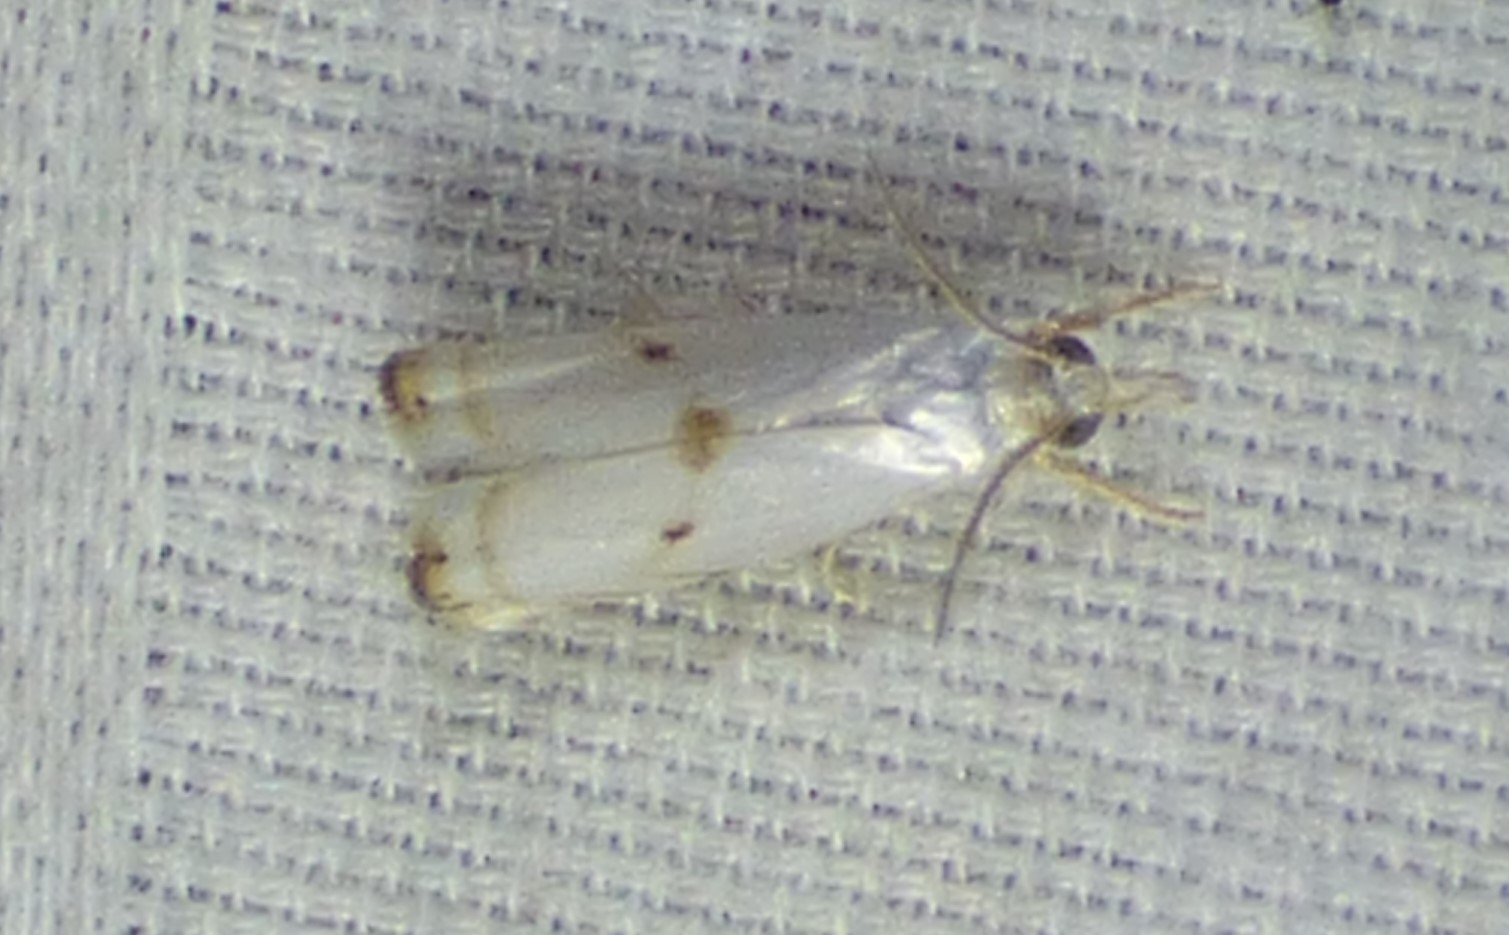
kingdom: Animalia
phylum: Arthropoda
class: Insecta
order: Lepidoptera
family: Crambidae
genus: Microcrambus
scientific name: Microcrambus biguttellus
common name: Gold-stripe grass-veneer moth
